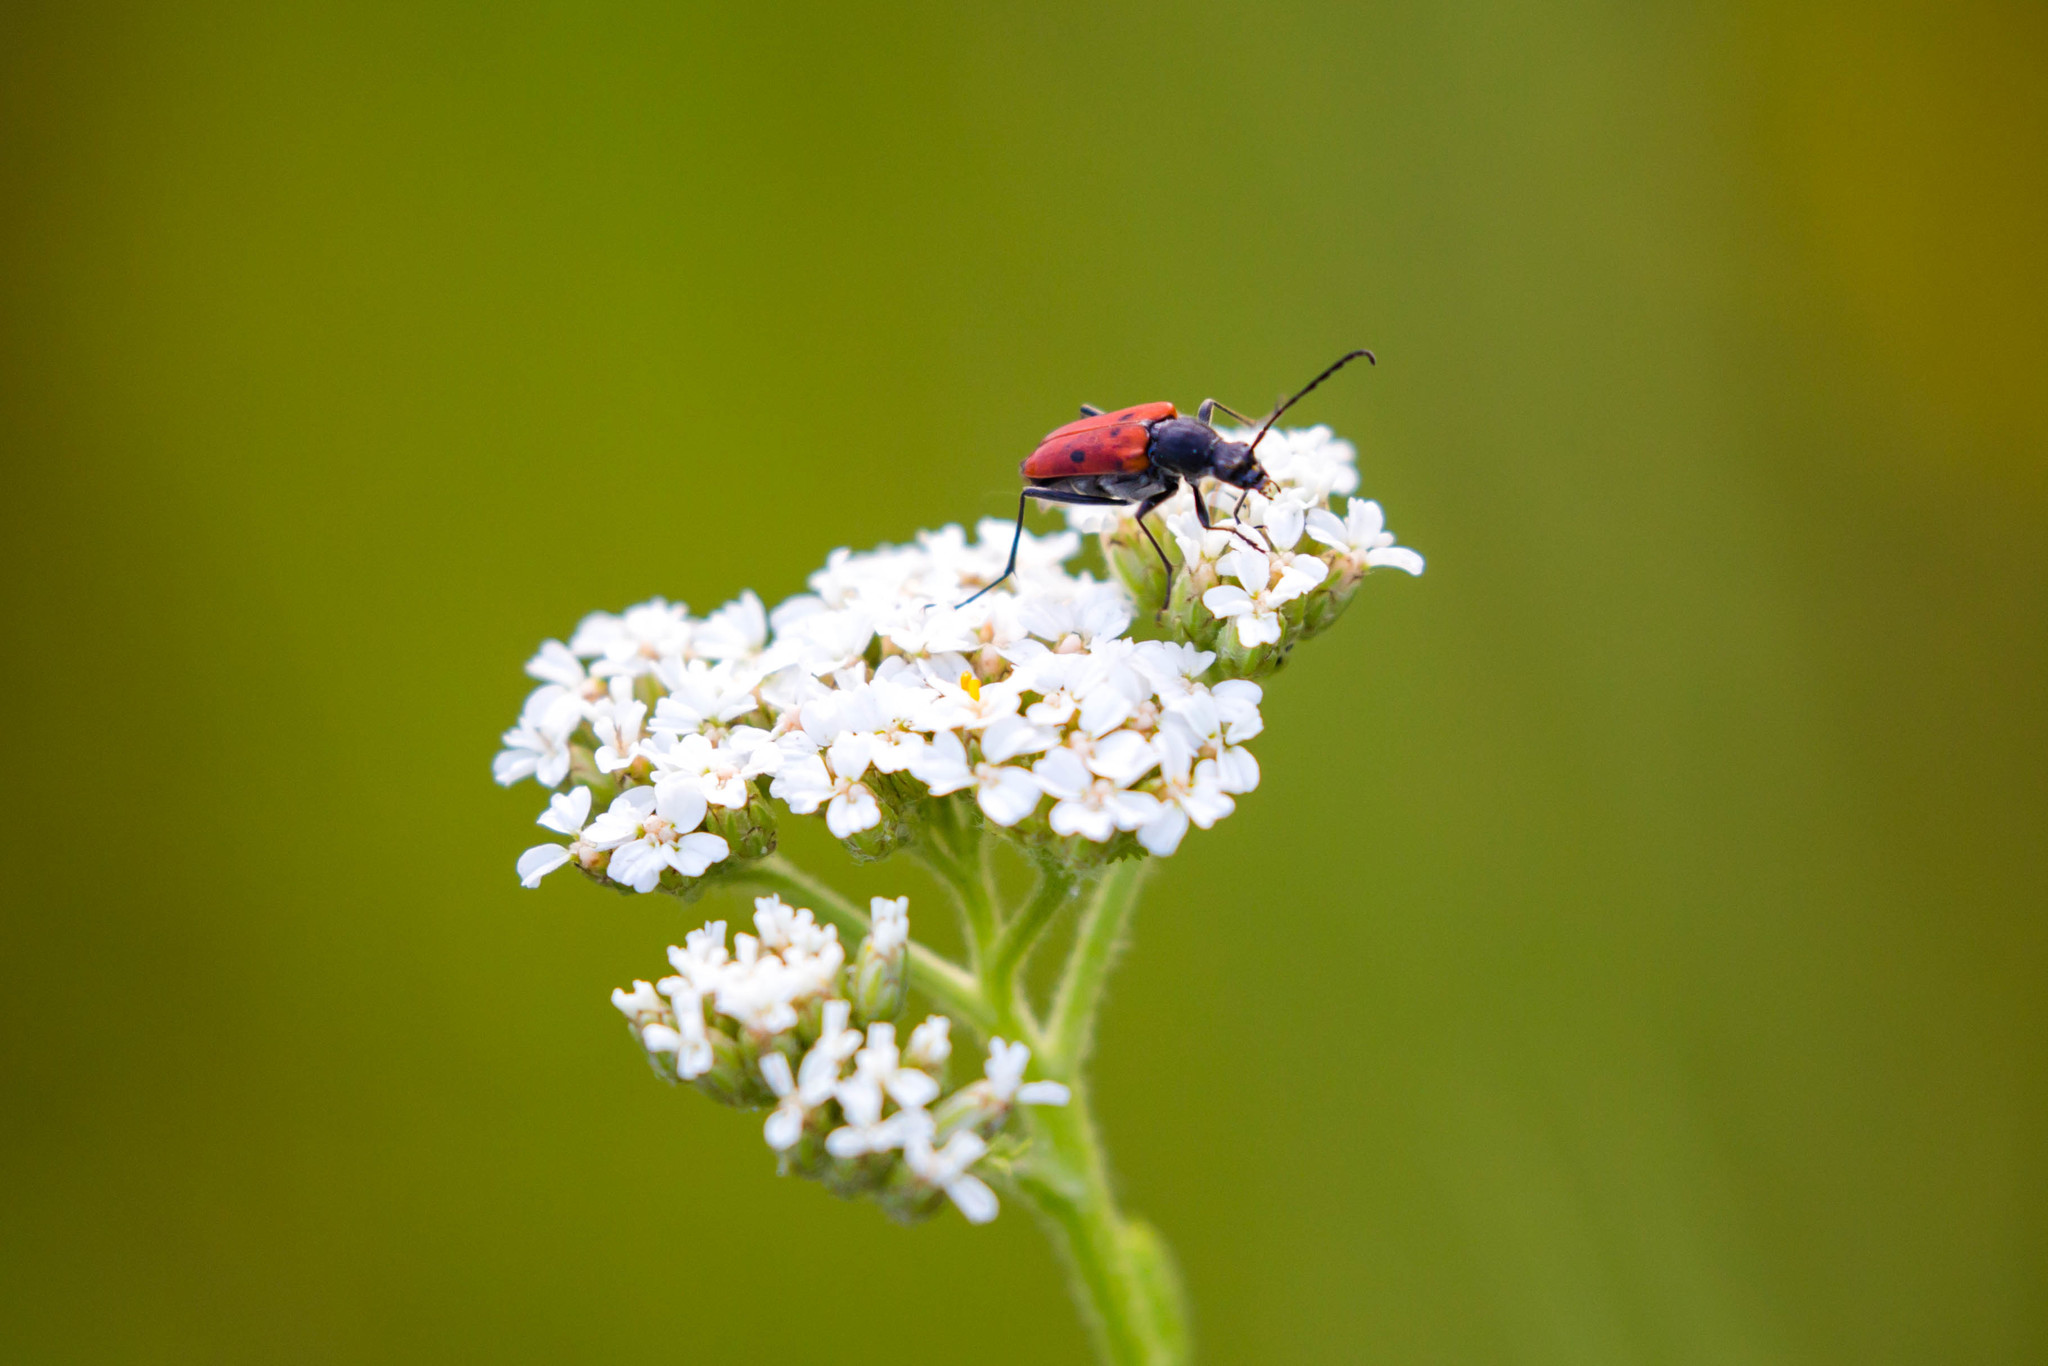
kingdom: Animalia
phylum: Arthropoda
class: Insecta
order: Coleoptera
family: Cerambycidae
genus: Anastrangalia
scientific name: Anastrangalia laetifica
